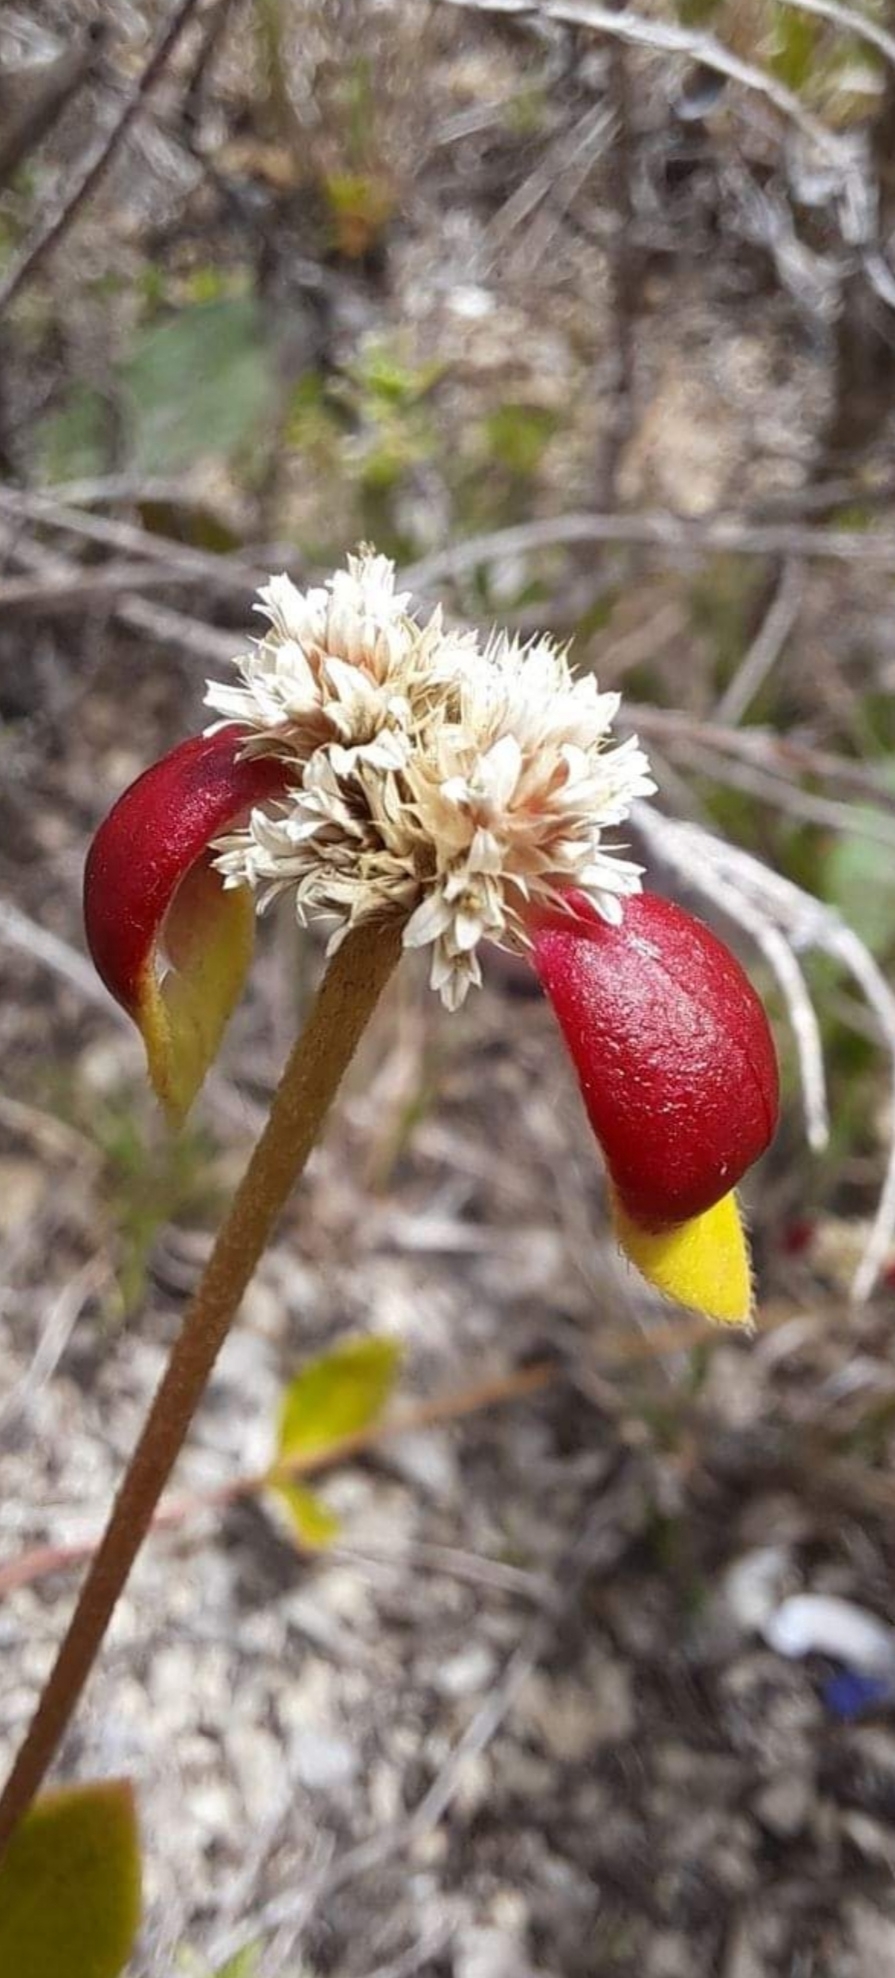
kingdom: Plantae
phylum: Tracheophyta
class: Magnoliopsida
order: Caryophyllales
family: Amaranthaceae
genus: Alternanthera
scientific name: Alternanthera macbridei
